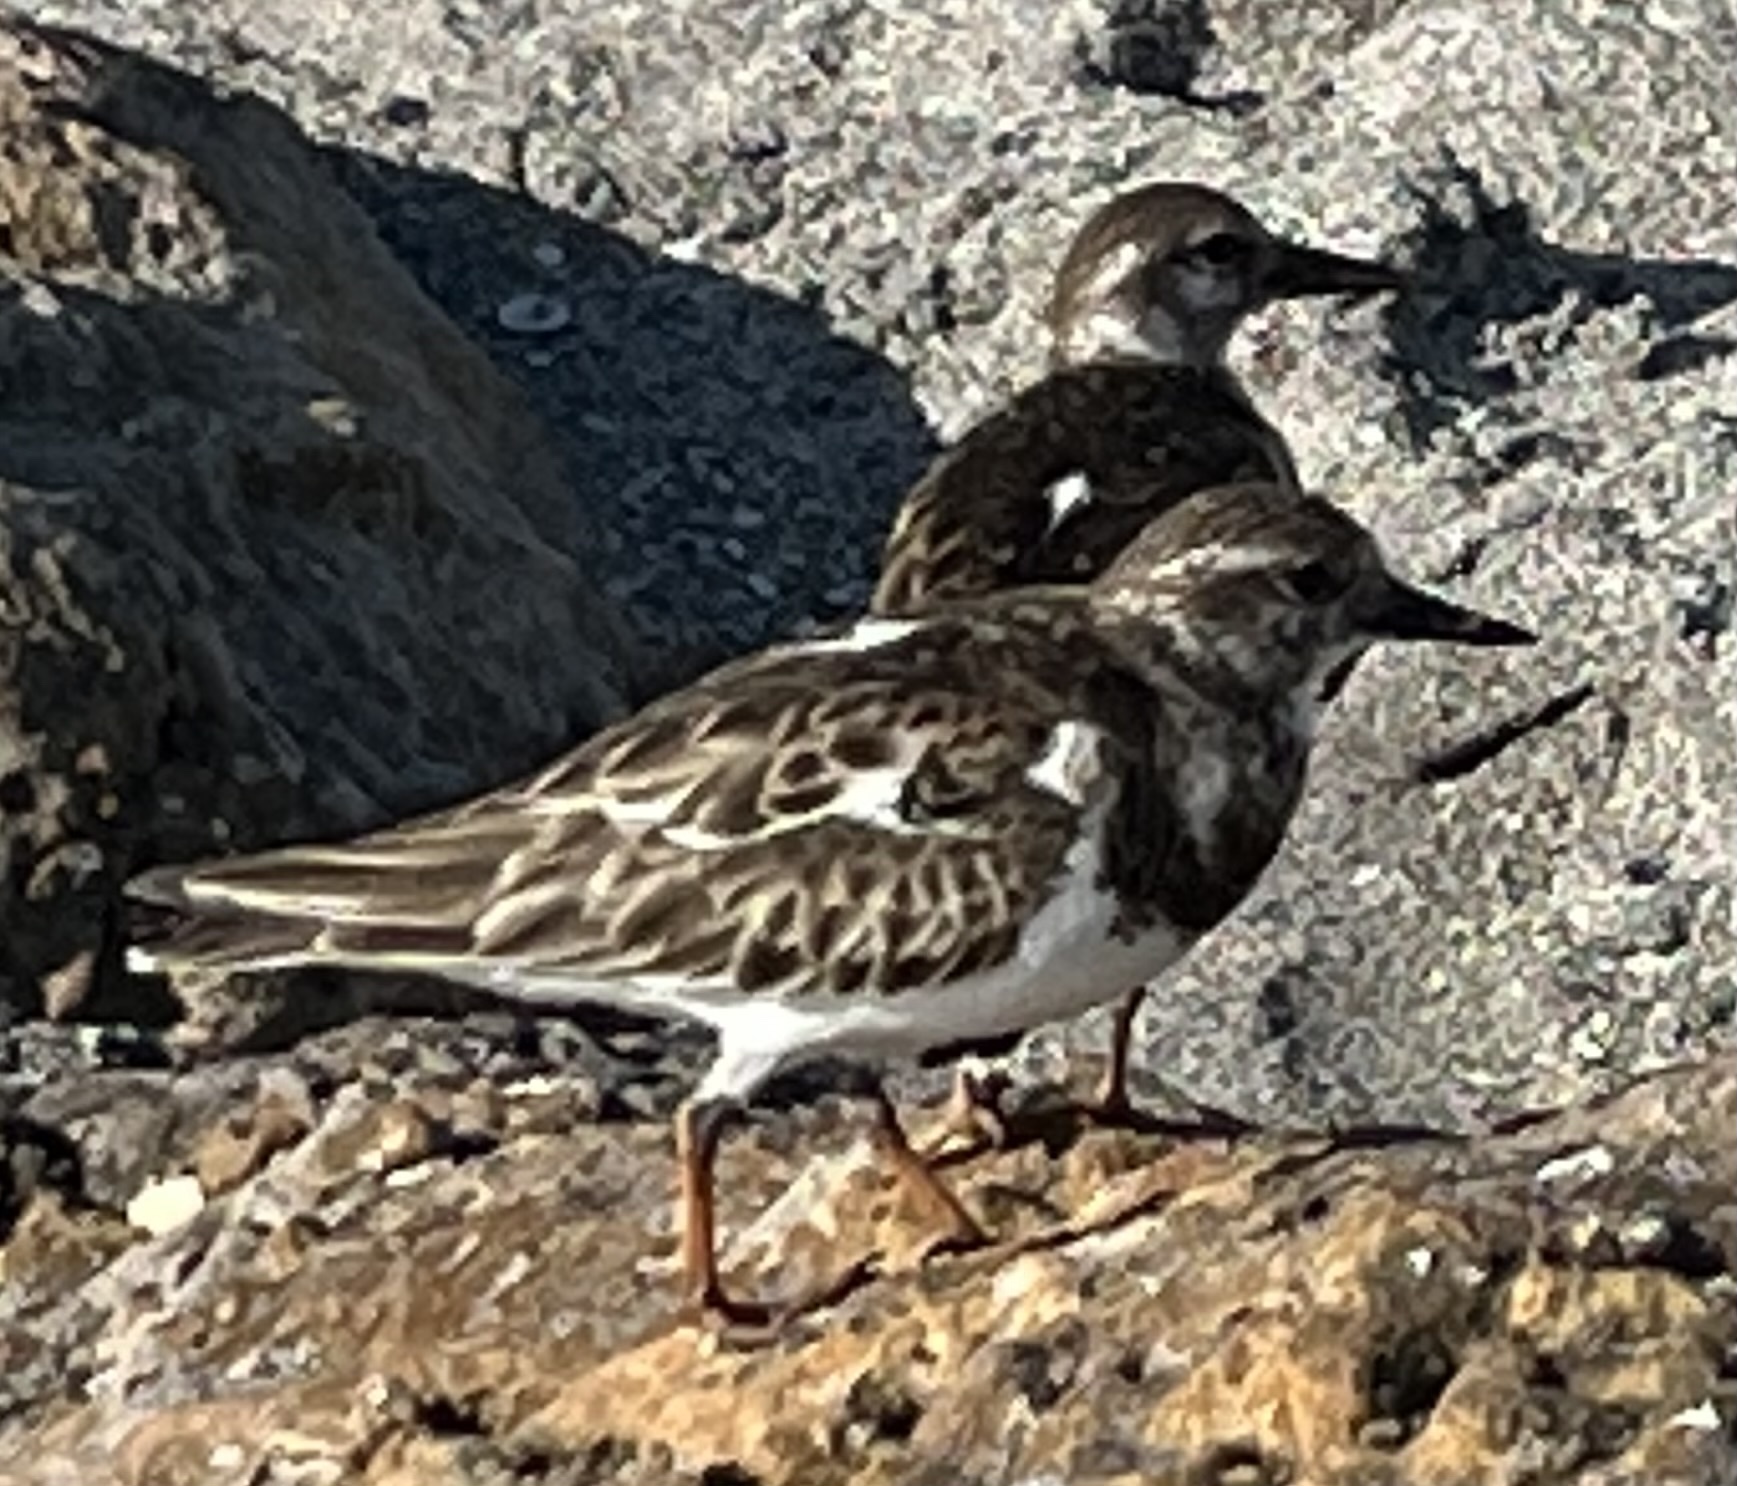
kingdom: Animalia
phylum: Chordata
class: Aves
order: Charadriiformes
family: Scolopacidae
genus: Arenaria
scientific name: Arenaria interpres
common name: Ruddy turnstone
